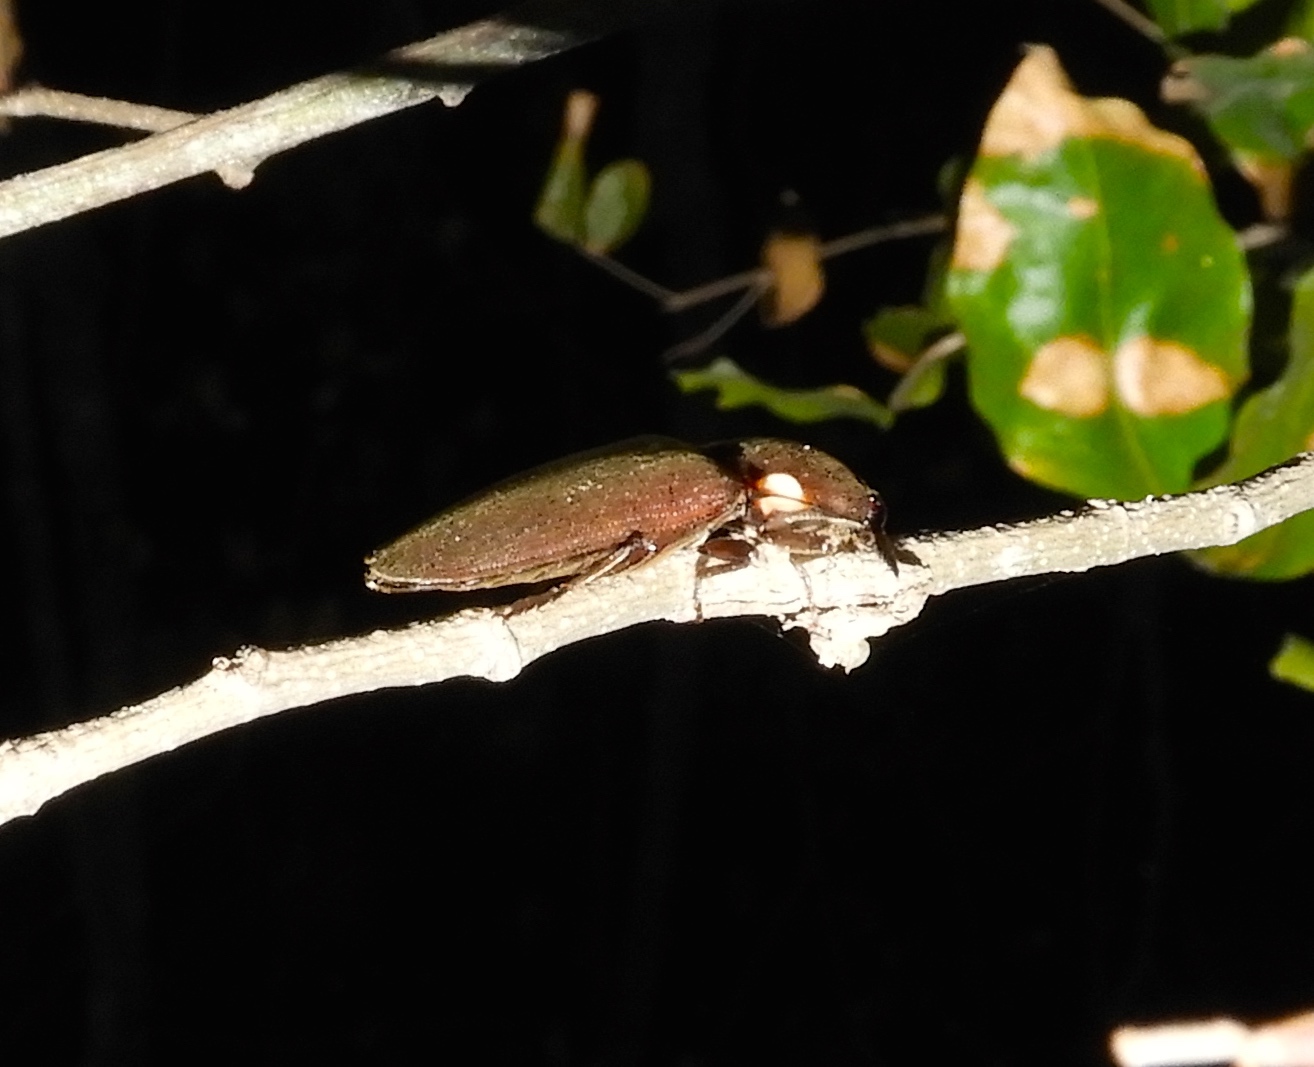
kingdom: Animalia
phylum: Arthropoda
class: Insecta
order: Coleoptera
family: Elateridae
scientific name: Elateridae
